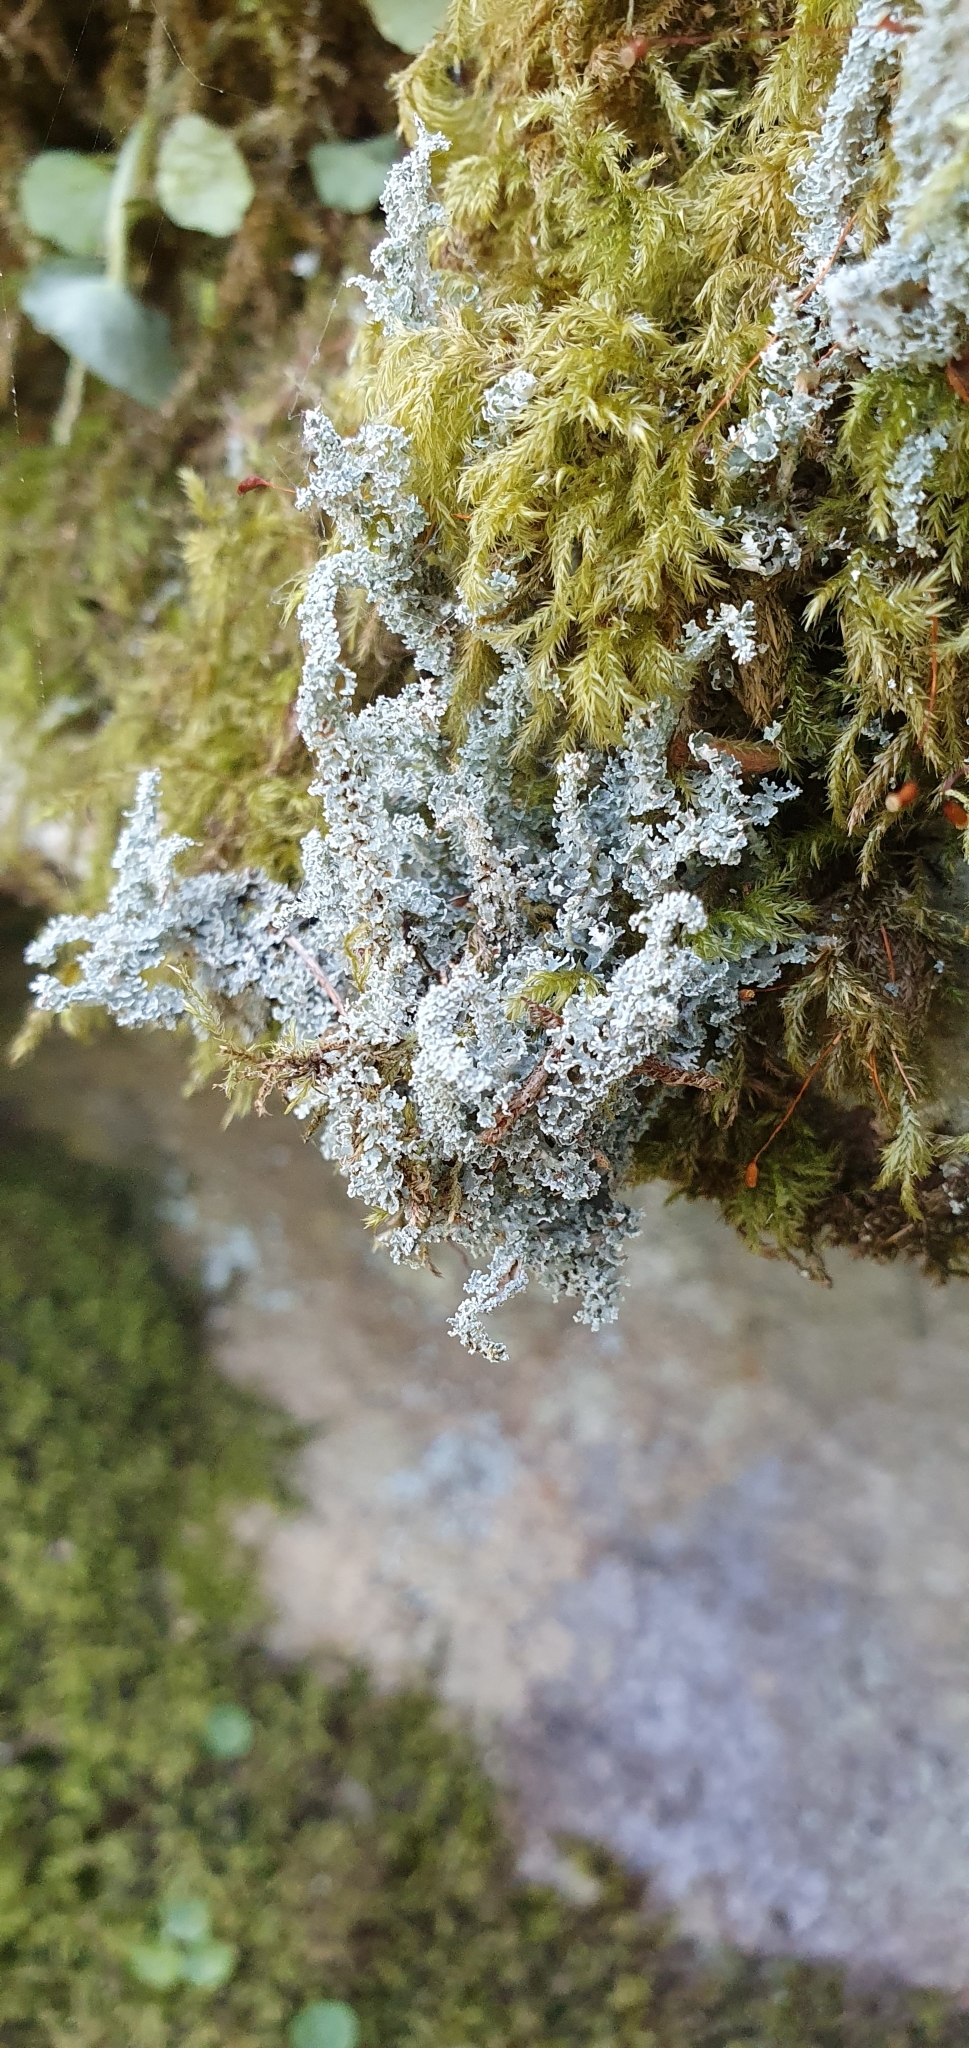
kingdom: Fungi
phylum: Ascomycota
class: Lecanoromycetes
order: Lecanorales
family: Cladoniaceae
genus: Cladonia
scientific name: Cladonia squamosa
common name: Dragon horn
